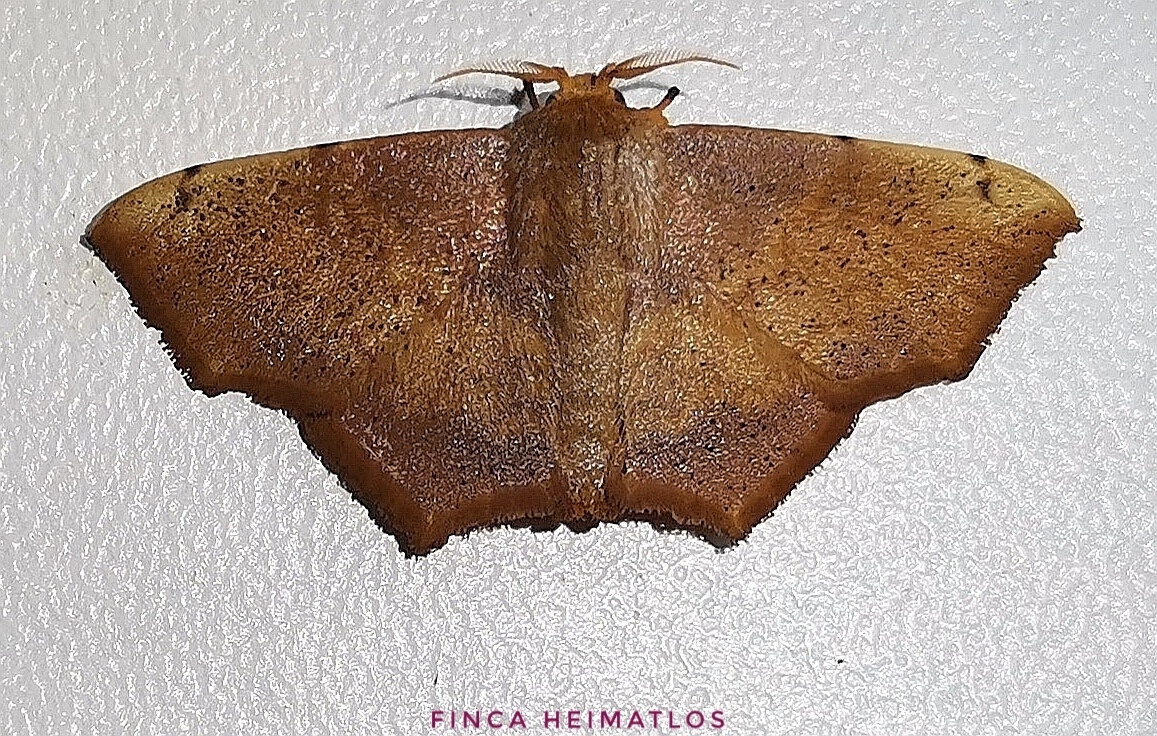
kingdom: Animalia
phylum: Arthropoda
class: Insecta
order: Lepidoptera
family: Mimallonidae
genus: Zaphanta
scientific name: Zaphanta rawlinsi
